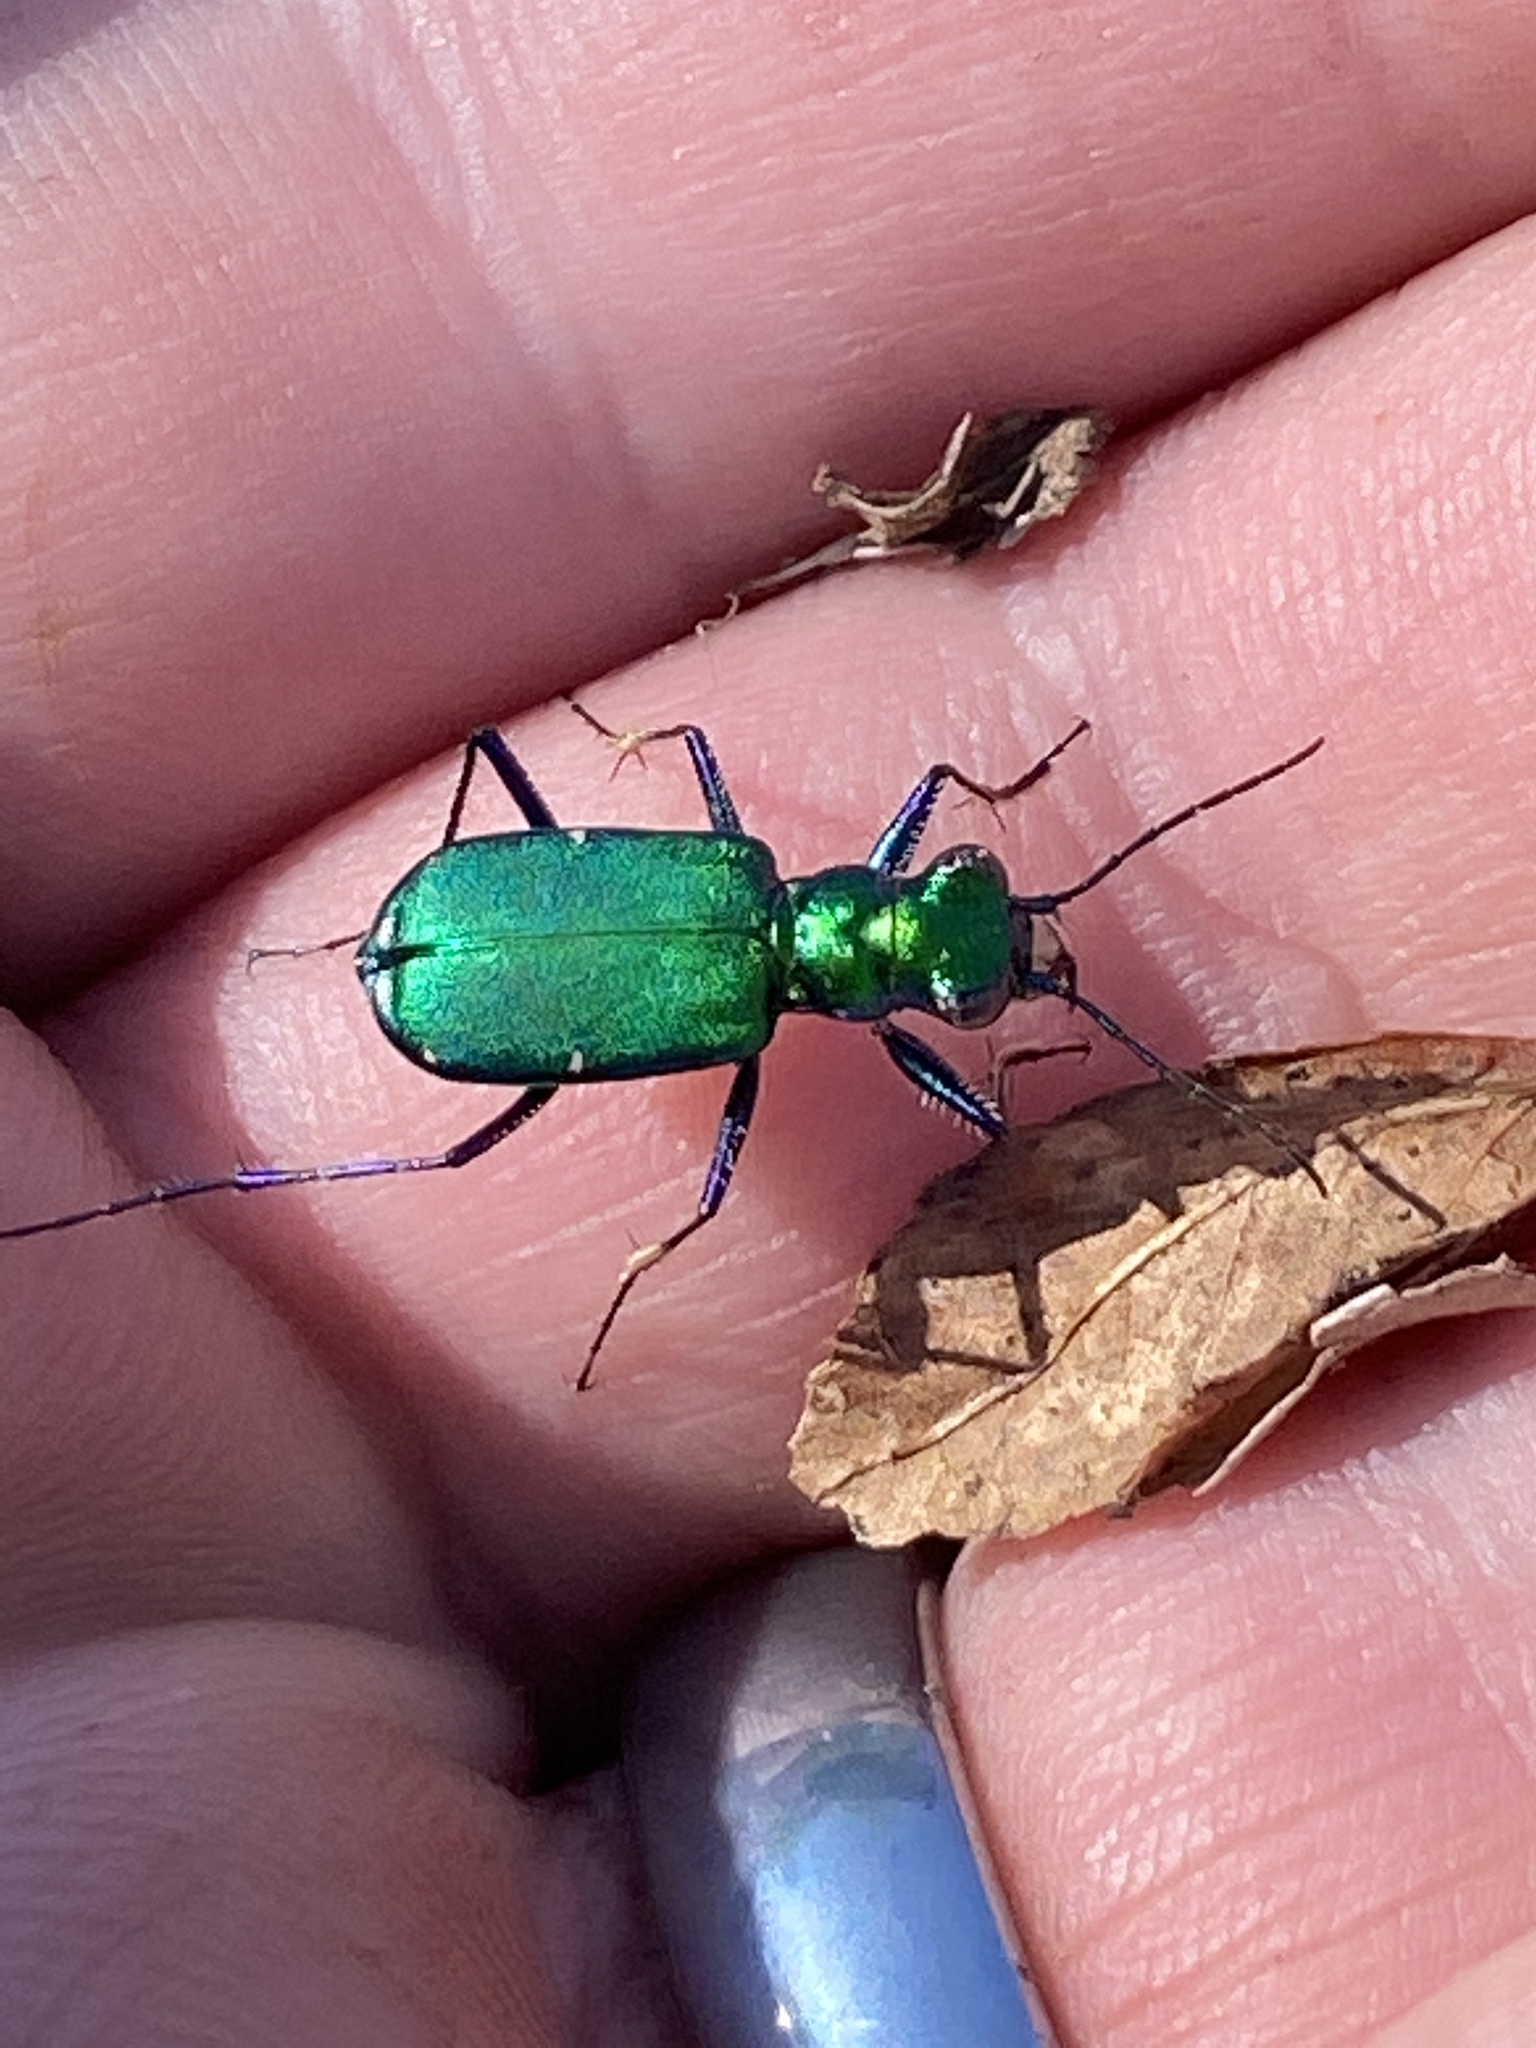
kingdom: Animalia
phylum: Arthropoda
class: Insecta
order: Coleoptera
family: Carabidae
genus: Cicindela
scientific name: Cicindela sexguttata
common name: Six-spotted tiger beetle
